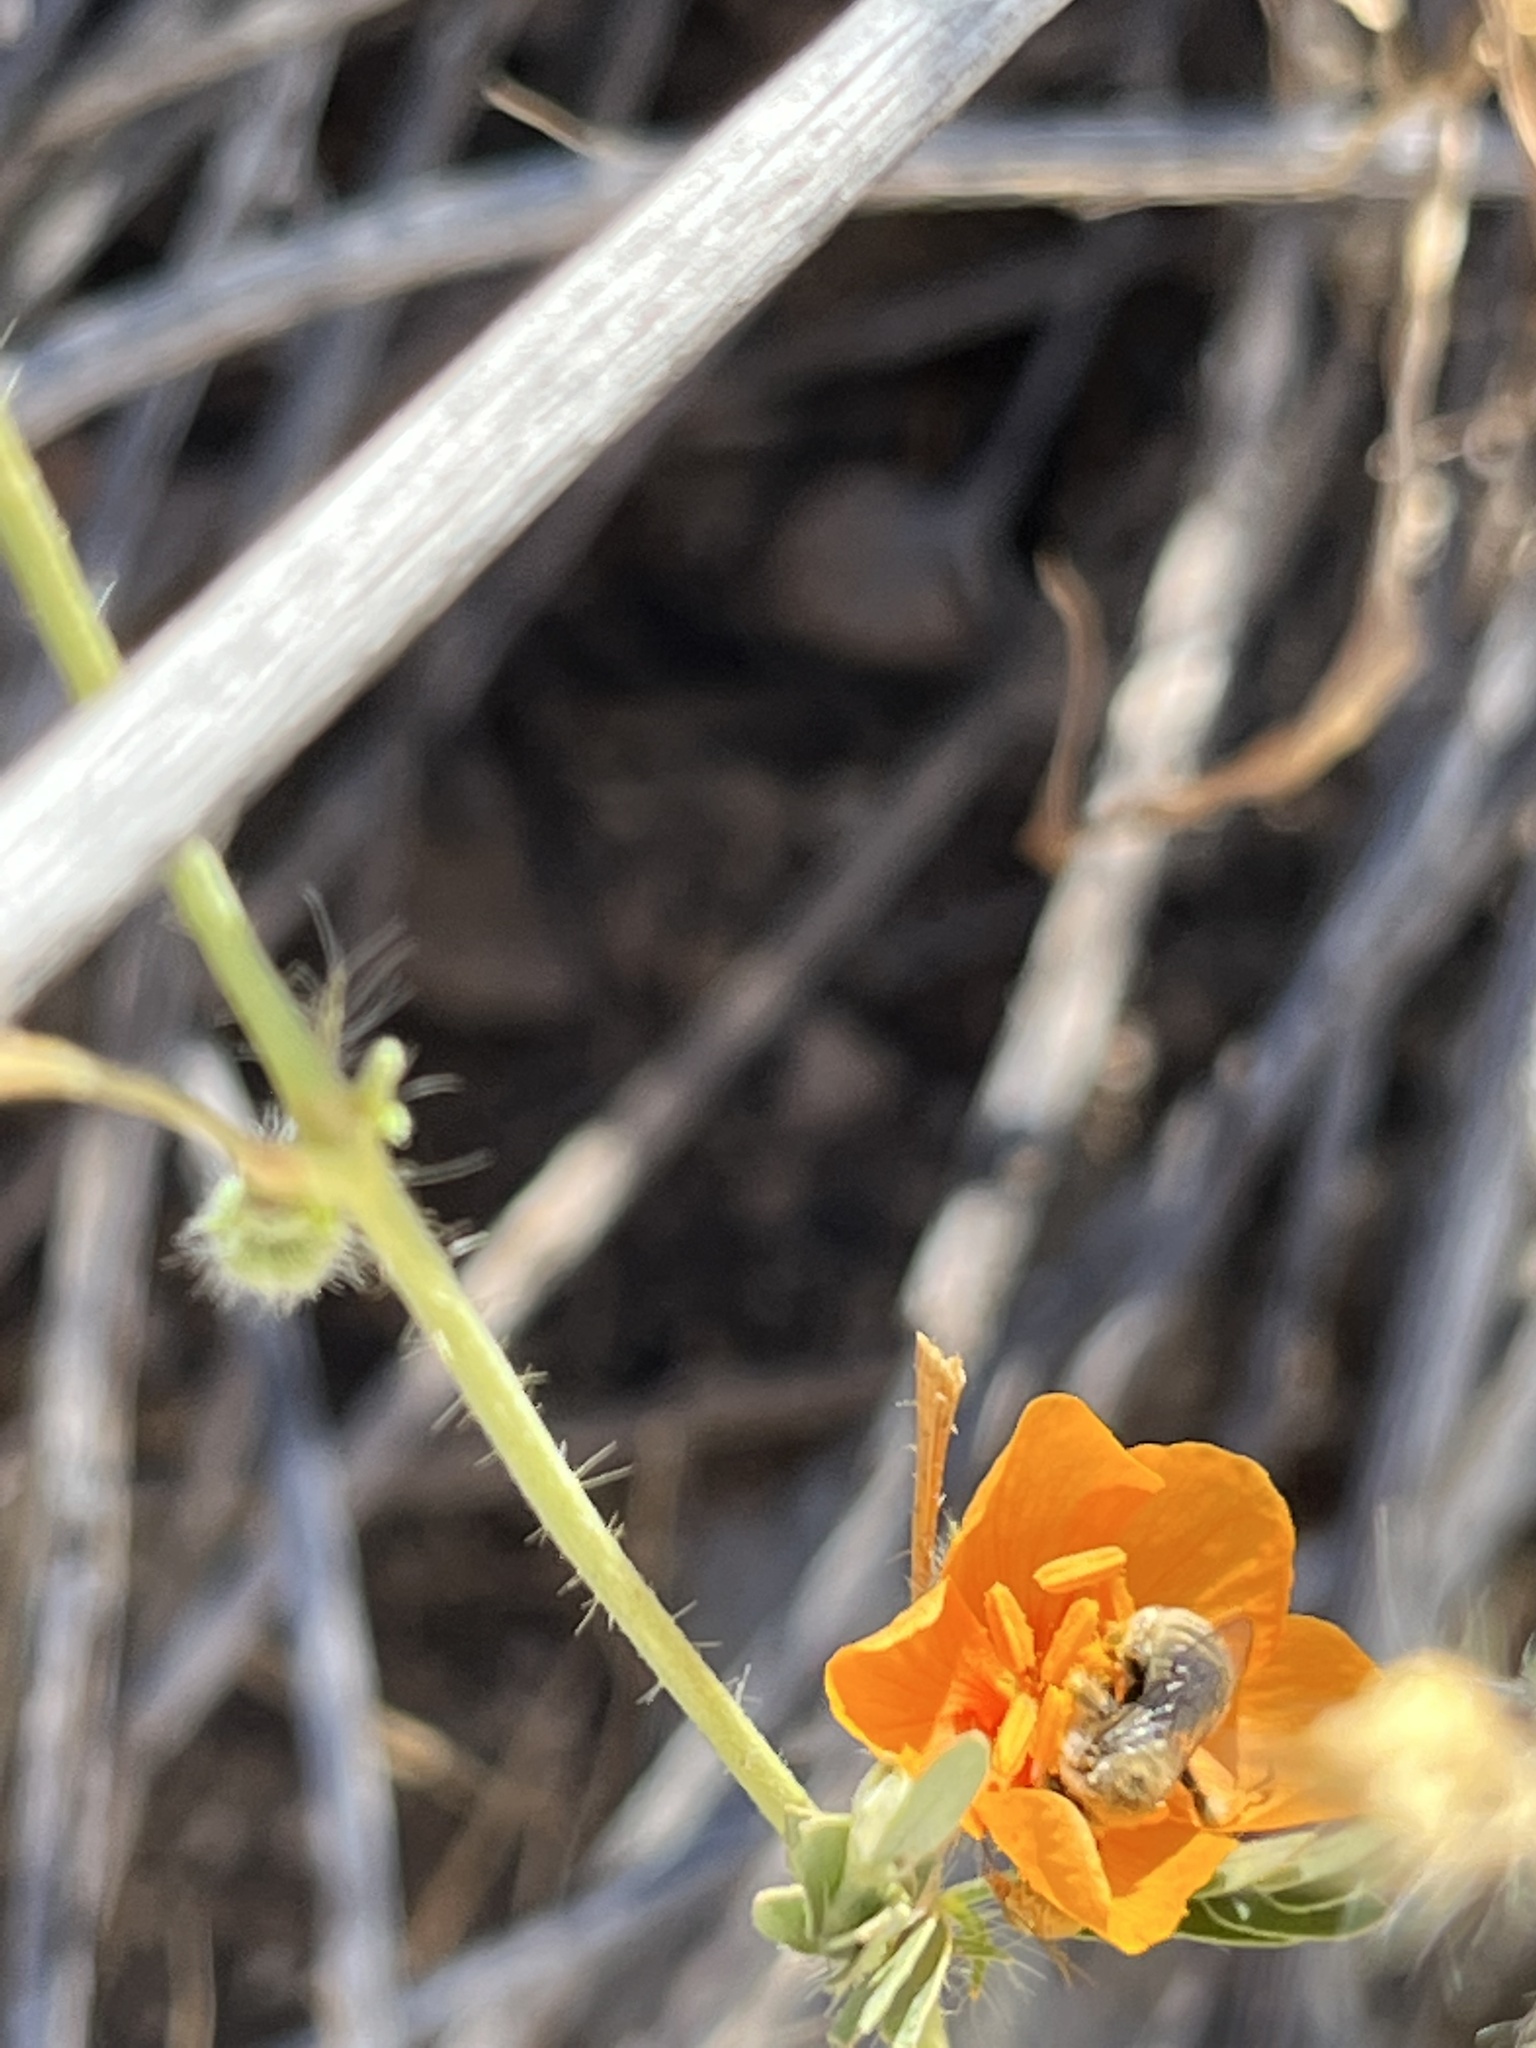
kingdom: Animalia
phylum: Arthropoda
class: Insecta
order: Hymenoptera
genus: Coquillettapis
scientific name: Coquillettapis
